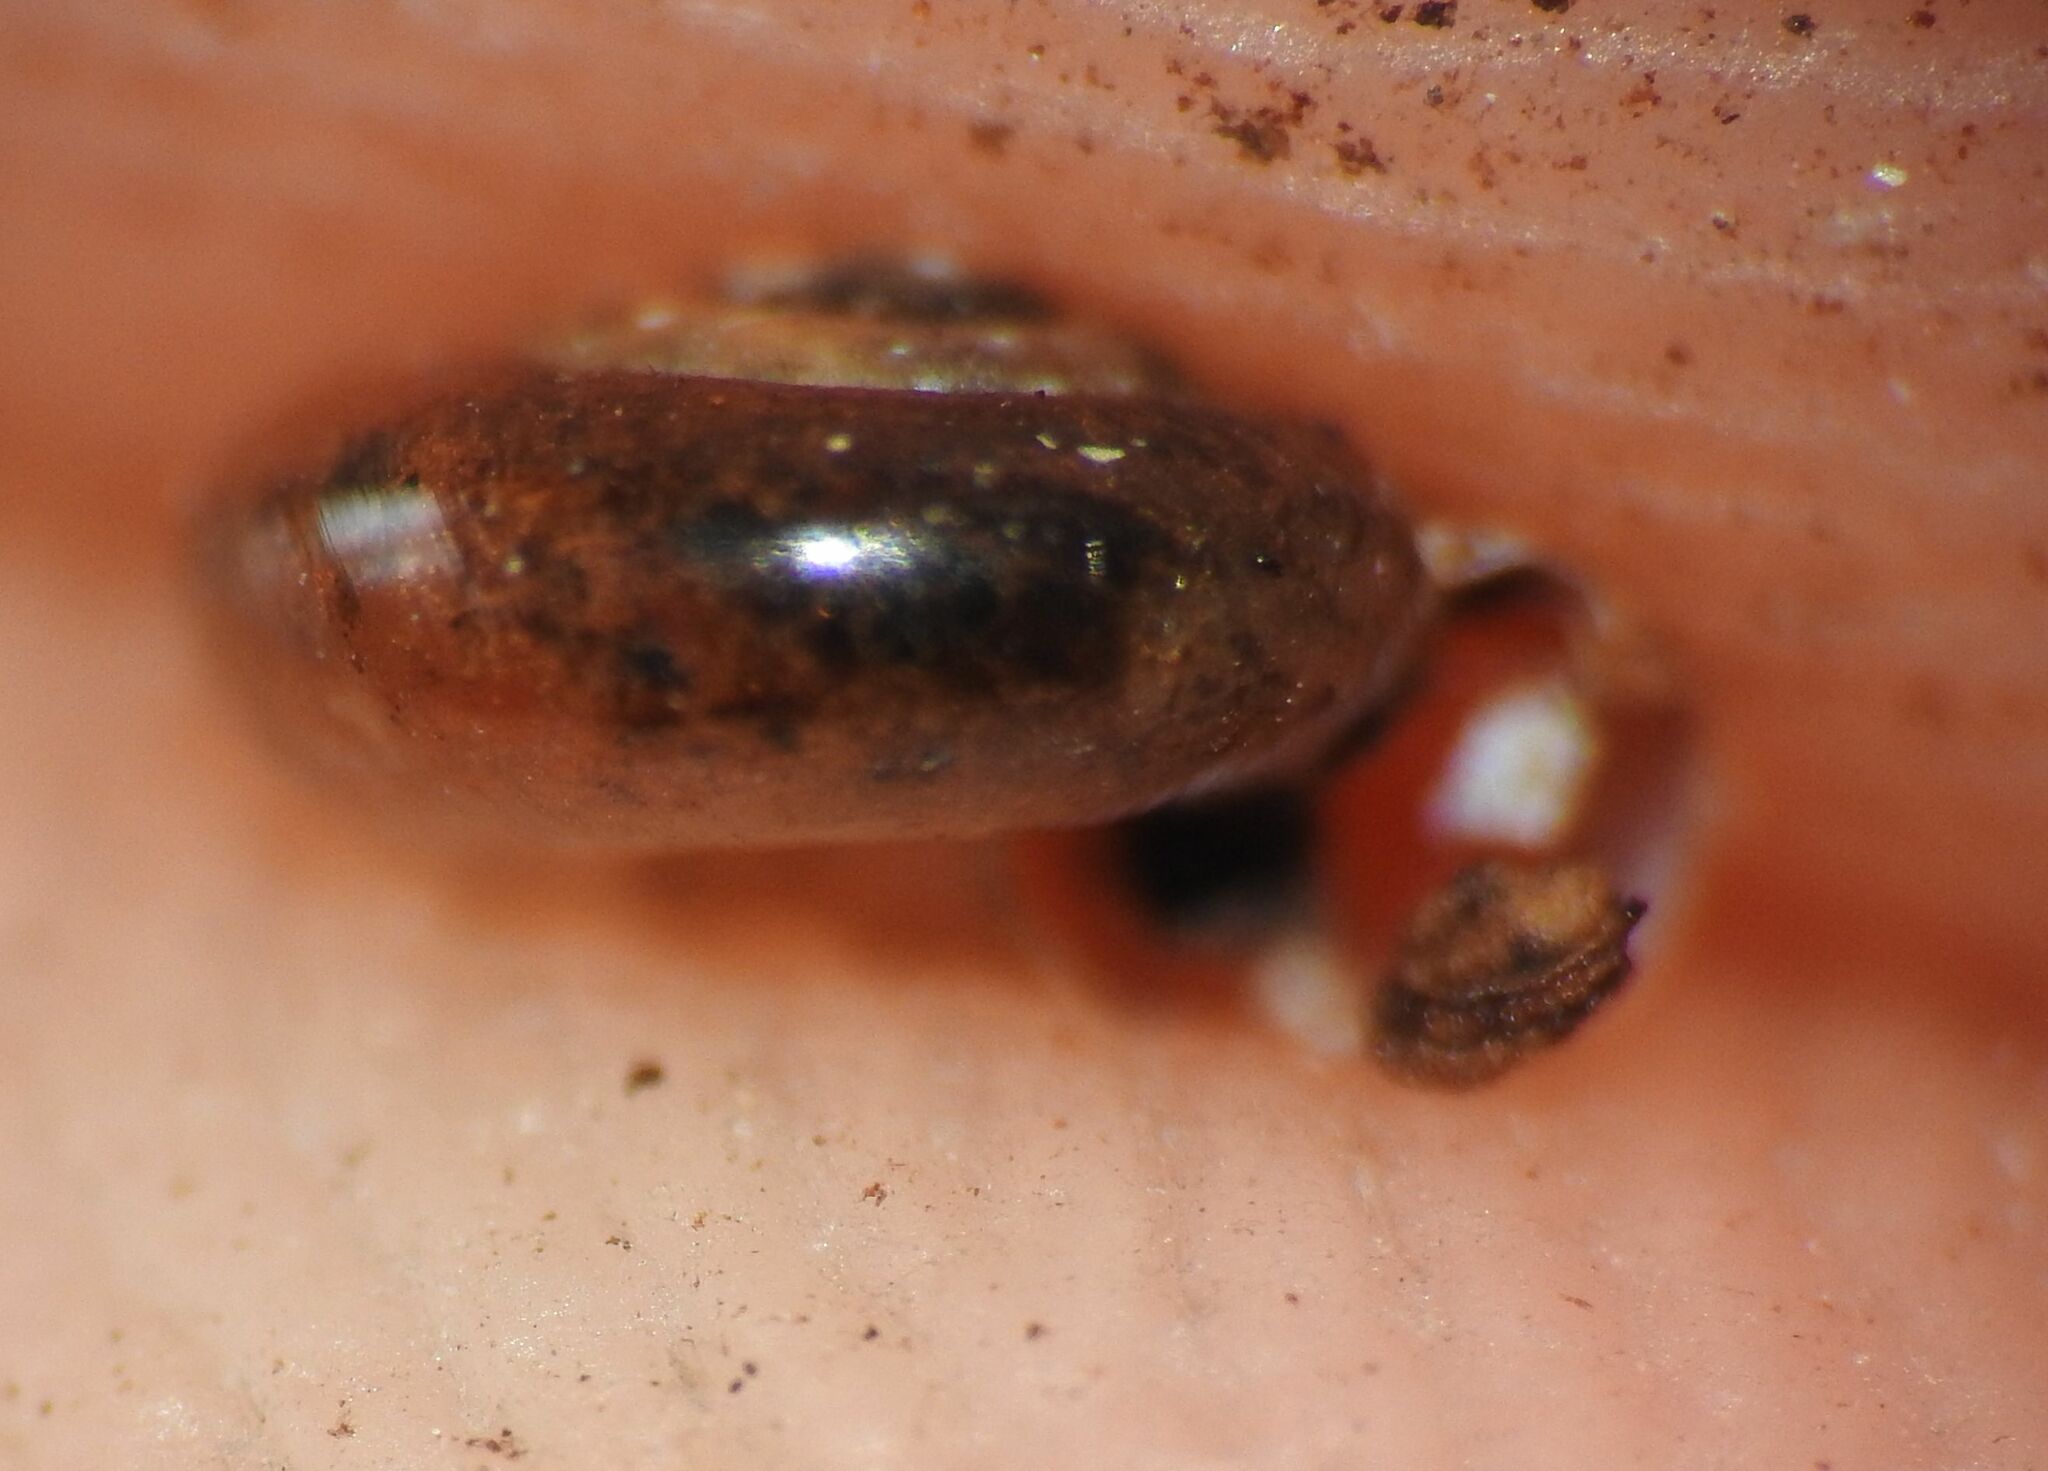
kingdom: Animalia
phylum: Mollusca
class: Gastropoda
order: Stylommatophora
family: Gastrodontidae
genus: Zonitoides
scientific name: Zonitoides nitidus
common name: Shiny glass snail
